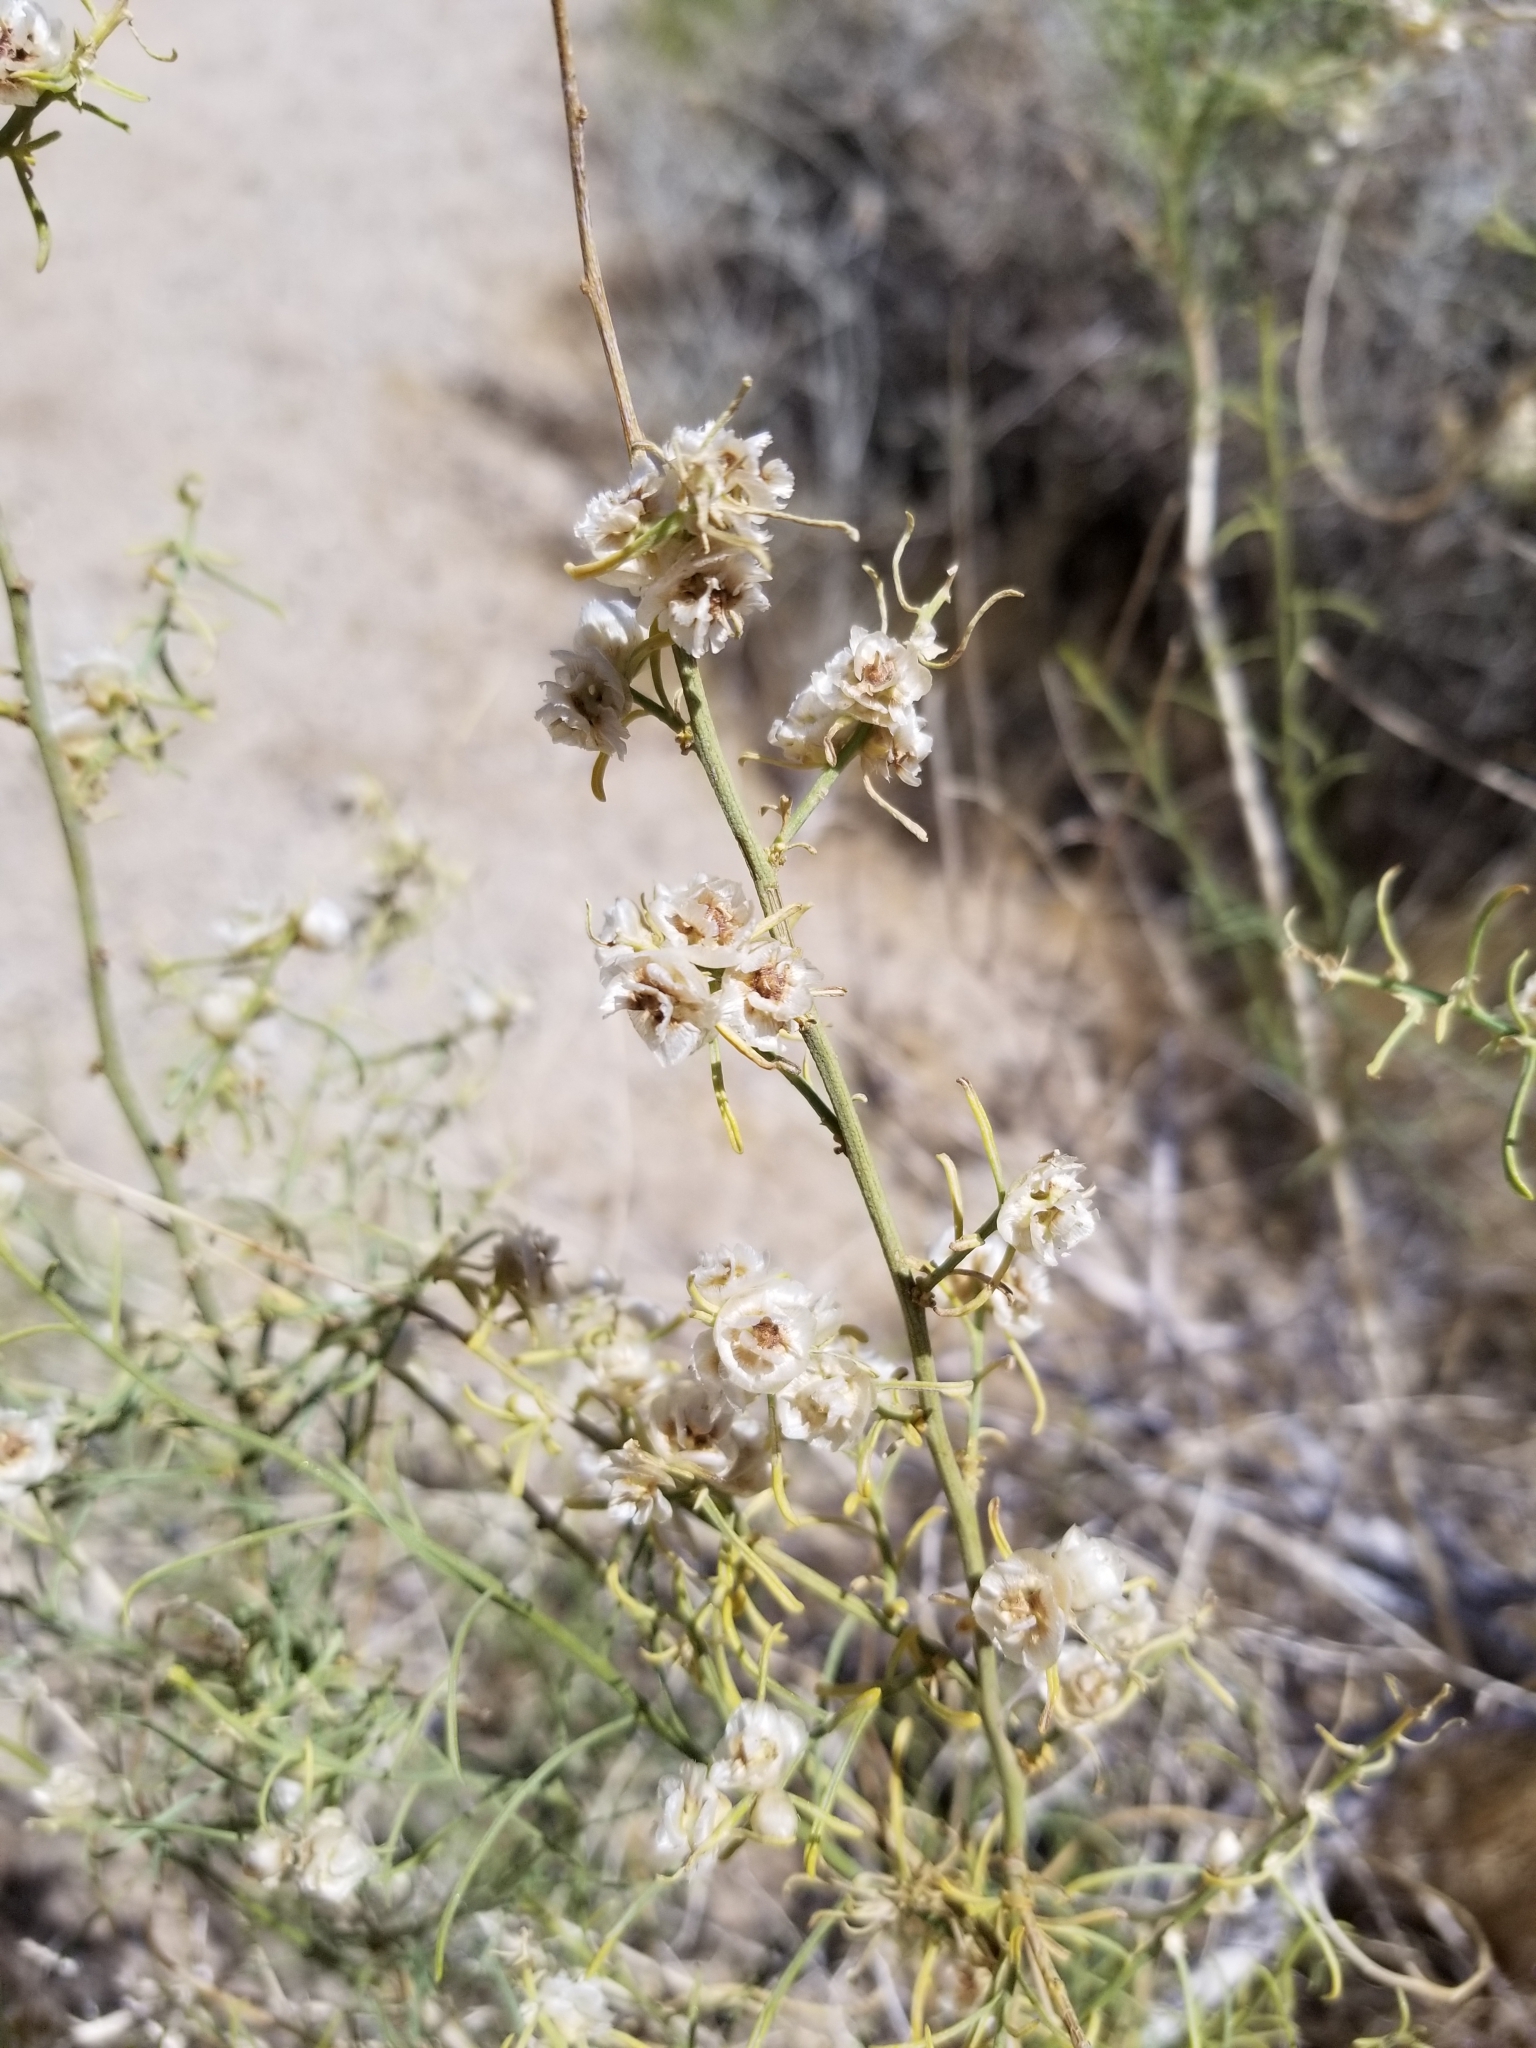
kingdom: Plantae
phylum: Tracheophyta
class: Magnoliopsida
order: Asterales
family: Asteraceae
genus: Ambrosia
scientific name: Ambrosia salsola
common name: Burrobrush
